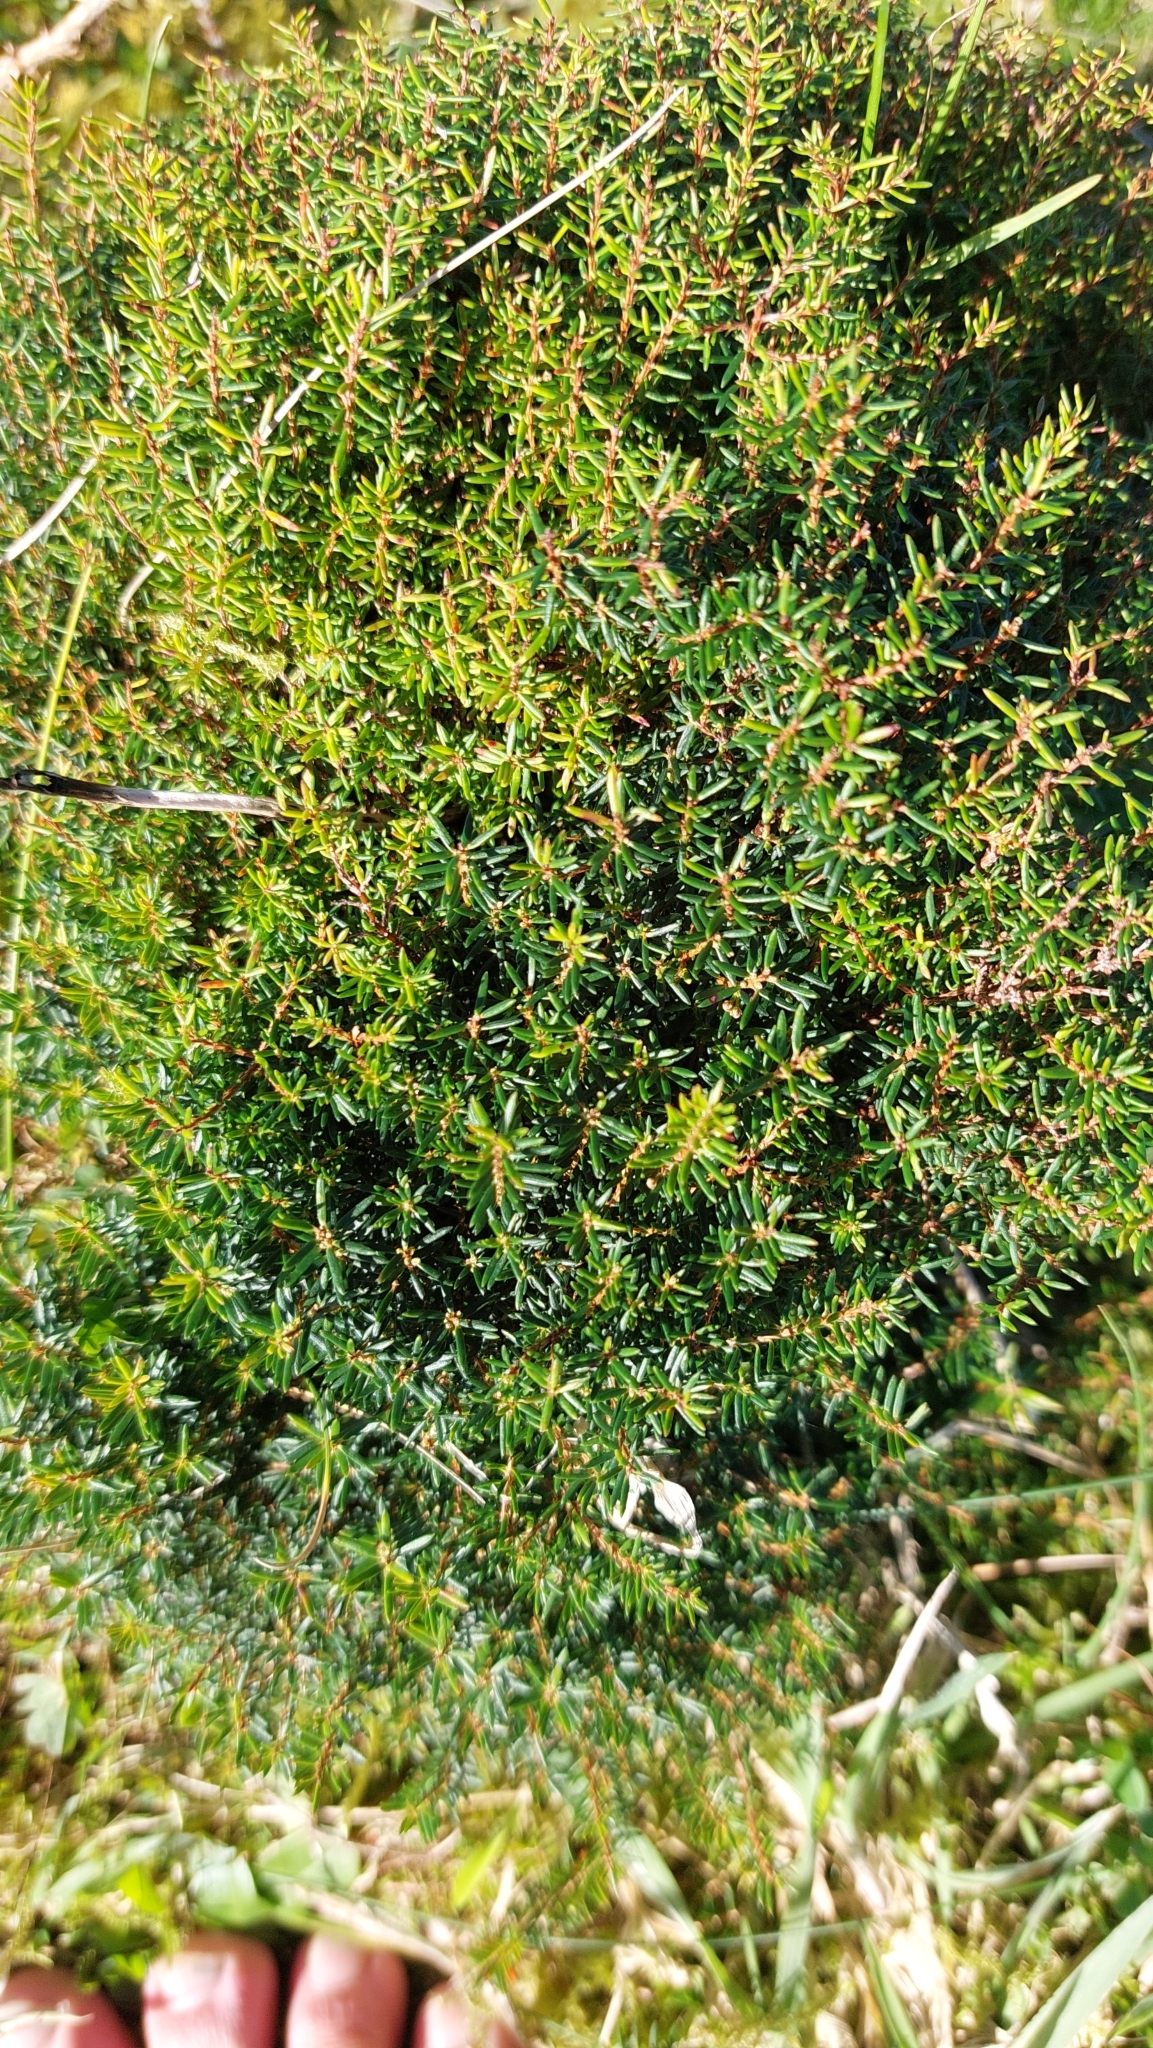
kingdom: Plantae
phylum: Tracheophyta
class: Magnoliopsida
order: Ericales
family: Ericaceae
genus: Erica
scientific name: Erica azorica
